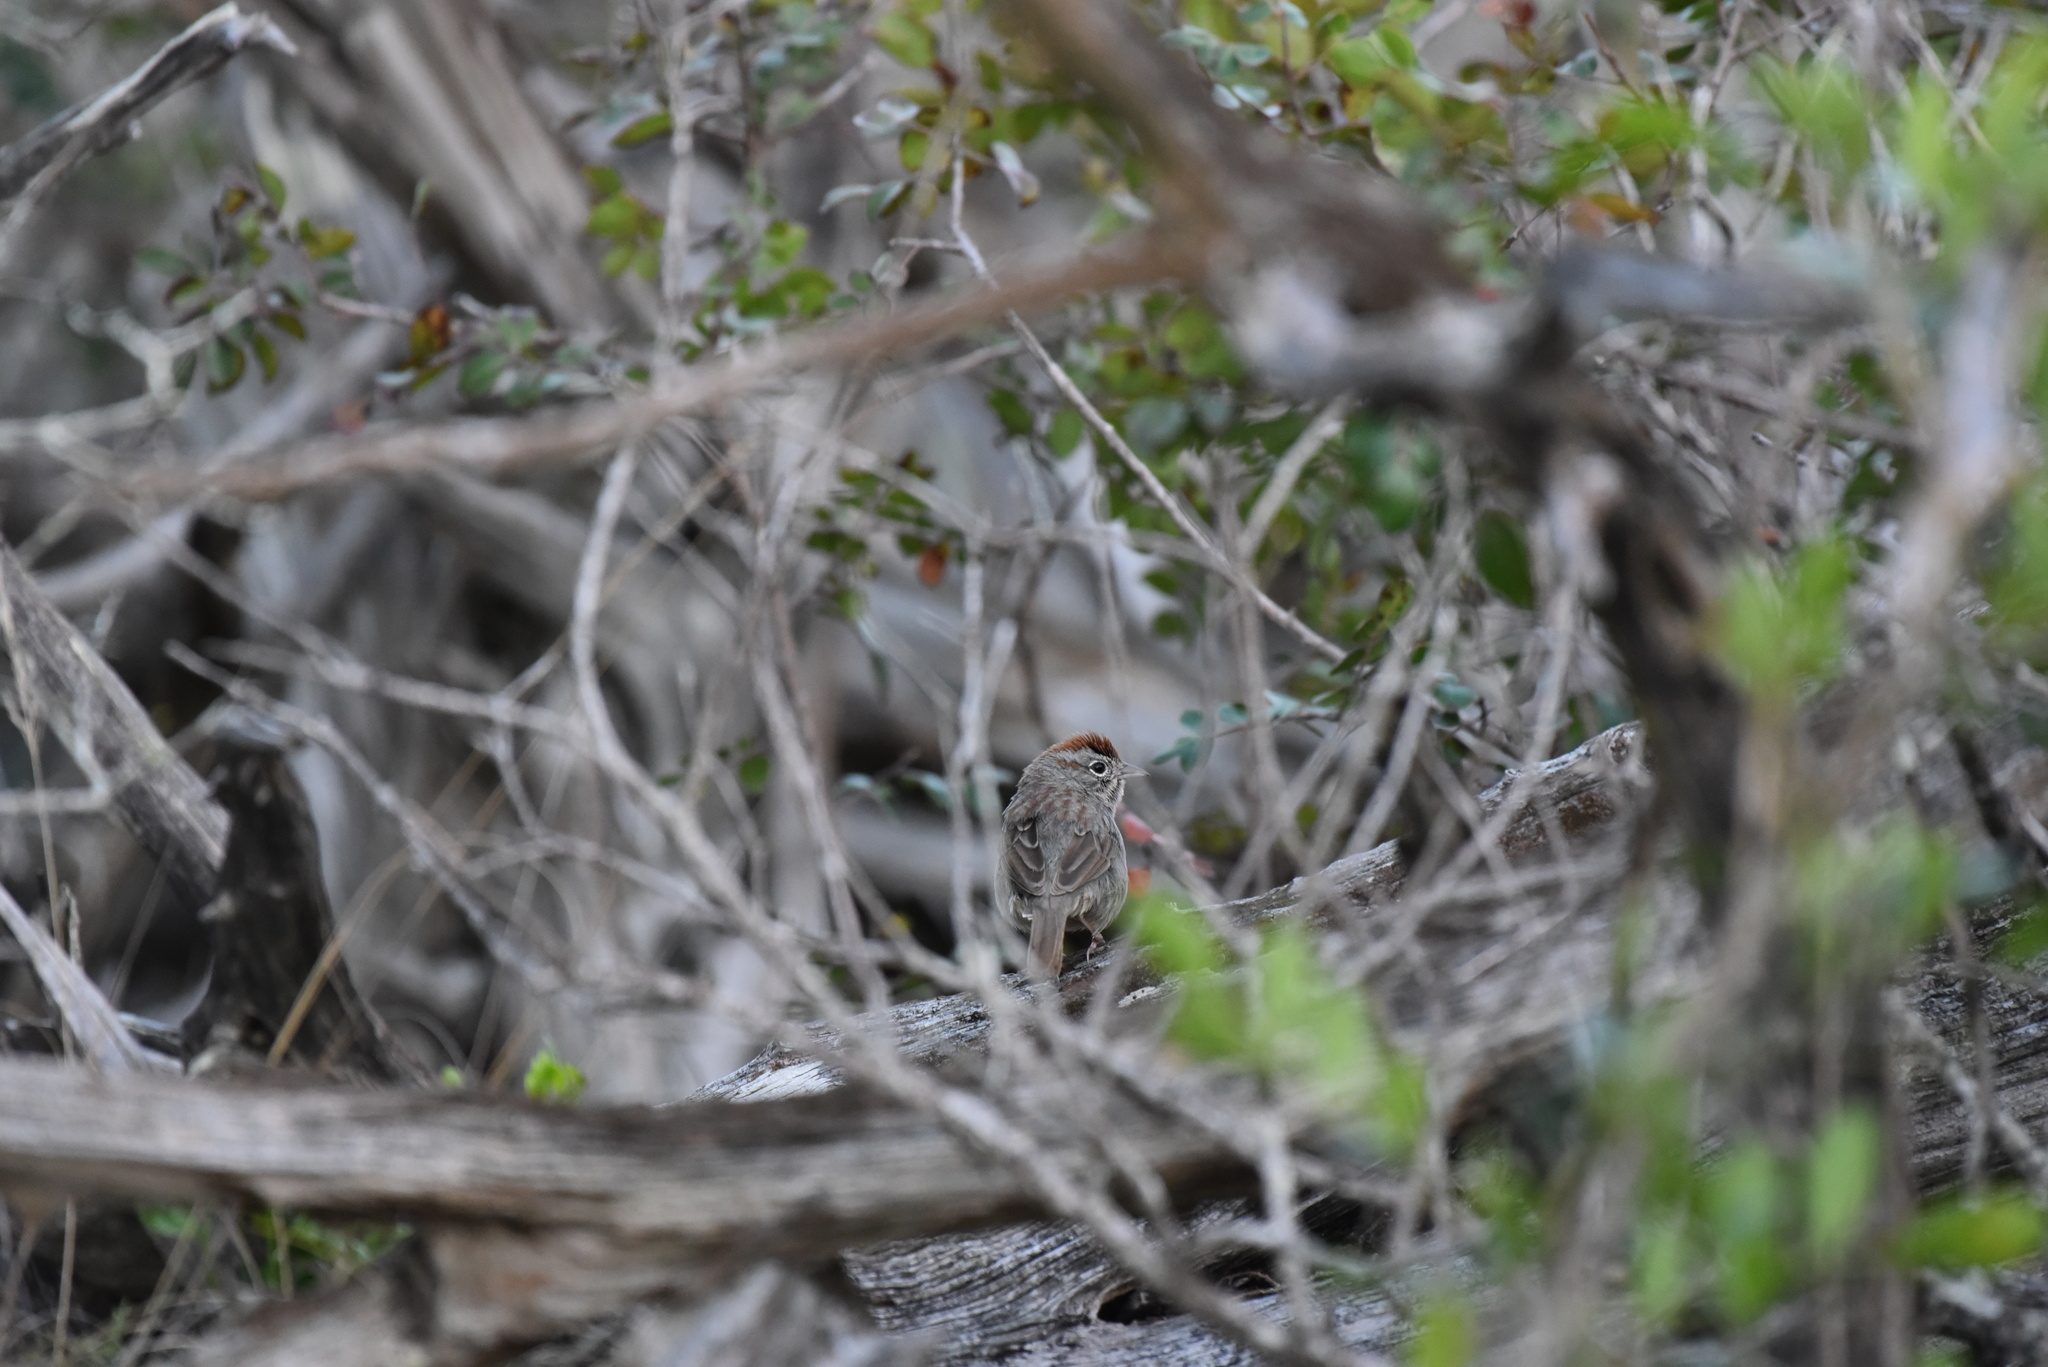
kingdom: Animalia
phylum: Chordata
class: Aves
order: Passeriformes
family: Passerellidae
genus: Aimophila
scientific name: Aimophila ruficeps
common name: Rufous-crowned sparrow
